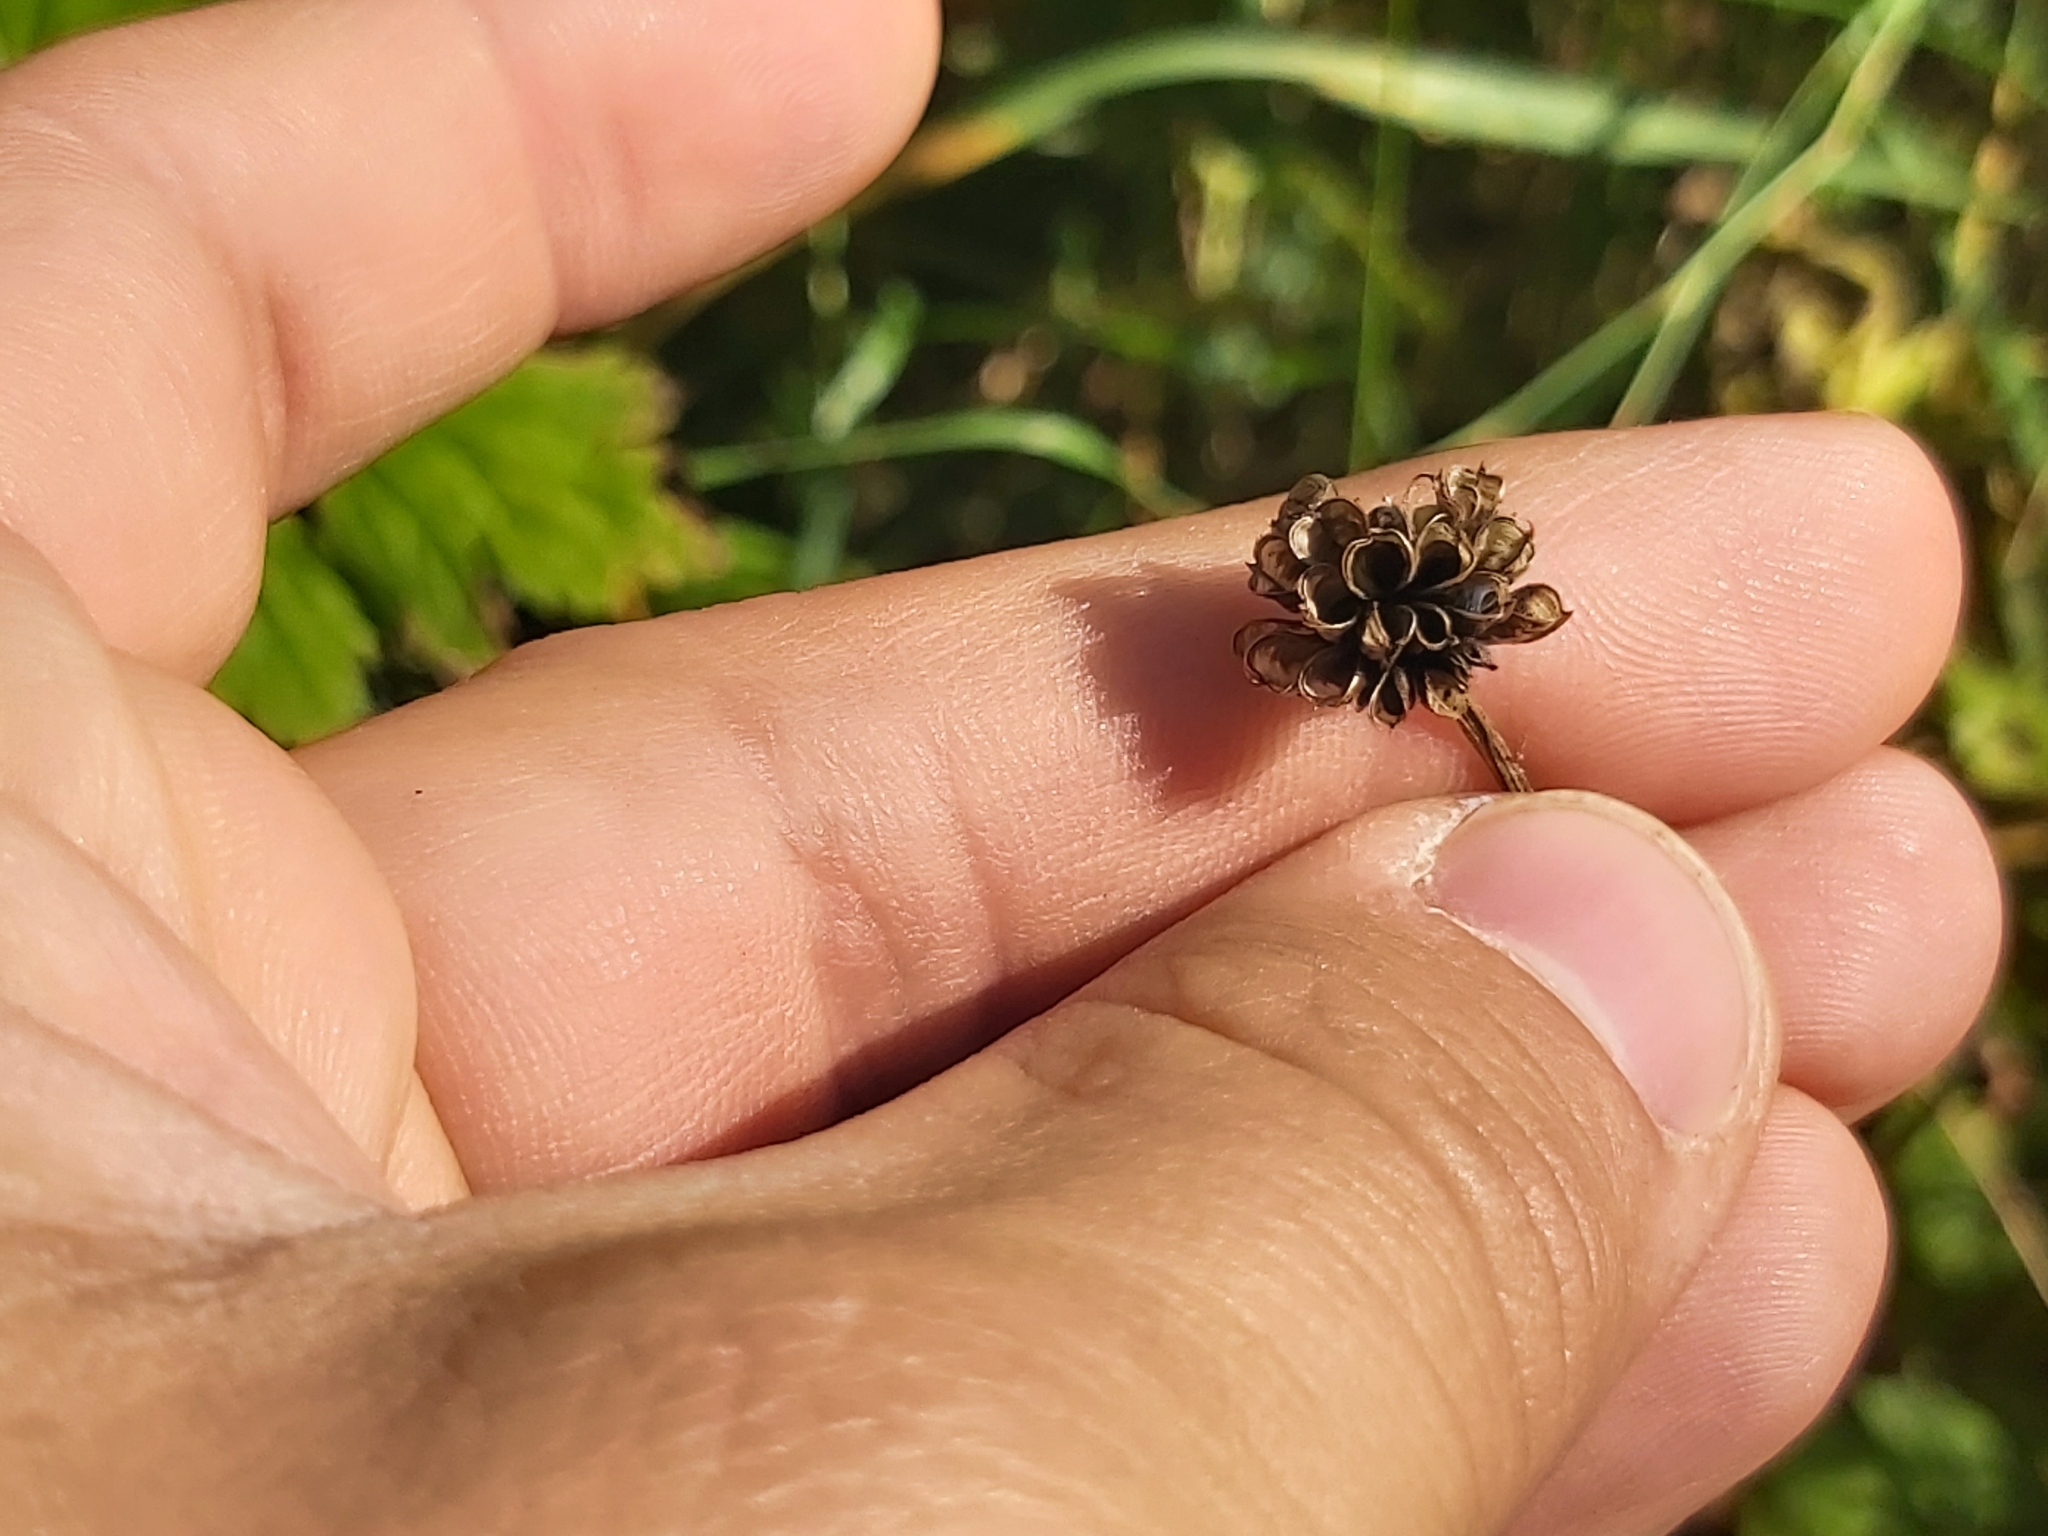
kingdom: Plantae
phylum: Tracheophyta
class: Magnoliopsida
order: Ranunculales
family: Ranunculaceae
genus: Trollius
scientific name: Trollius europaeus
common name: European globeflower
